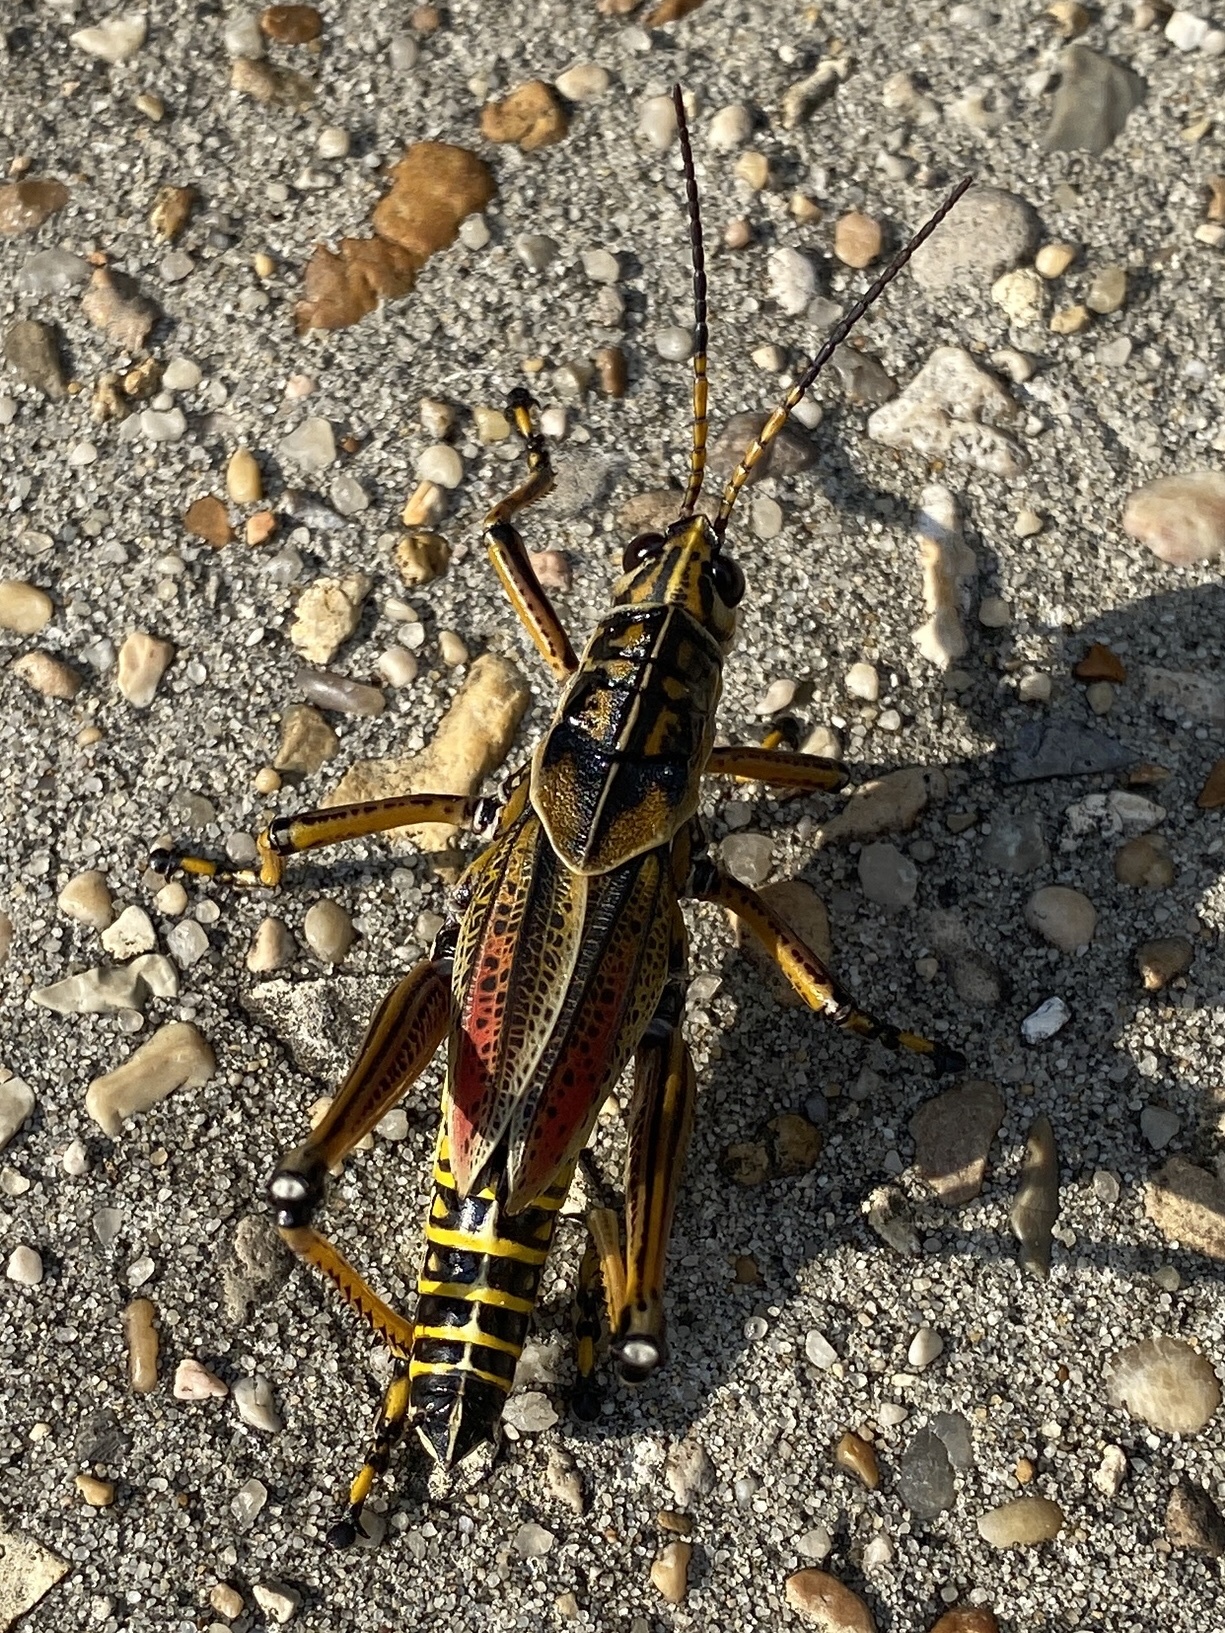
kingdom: Animalia
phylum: Arthropoda
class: Insecta
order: Orthoptera
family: Romaleidae
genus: Romalea
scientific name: Romalea microptera
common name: Eastern lubber grasshopper
